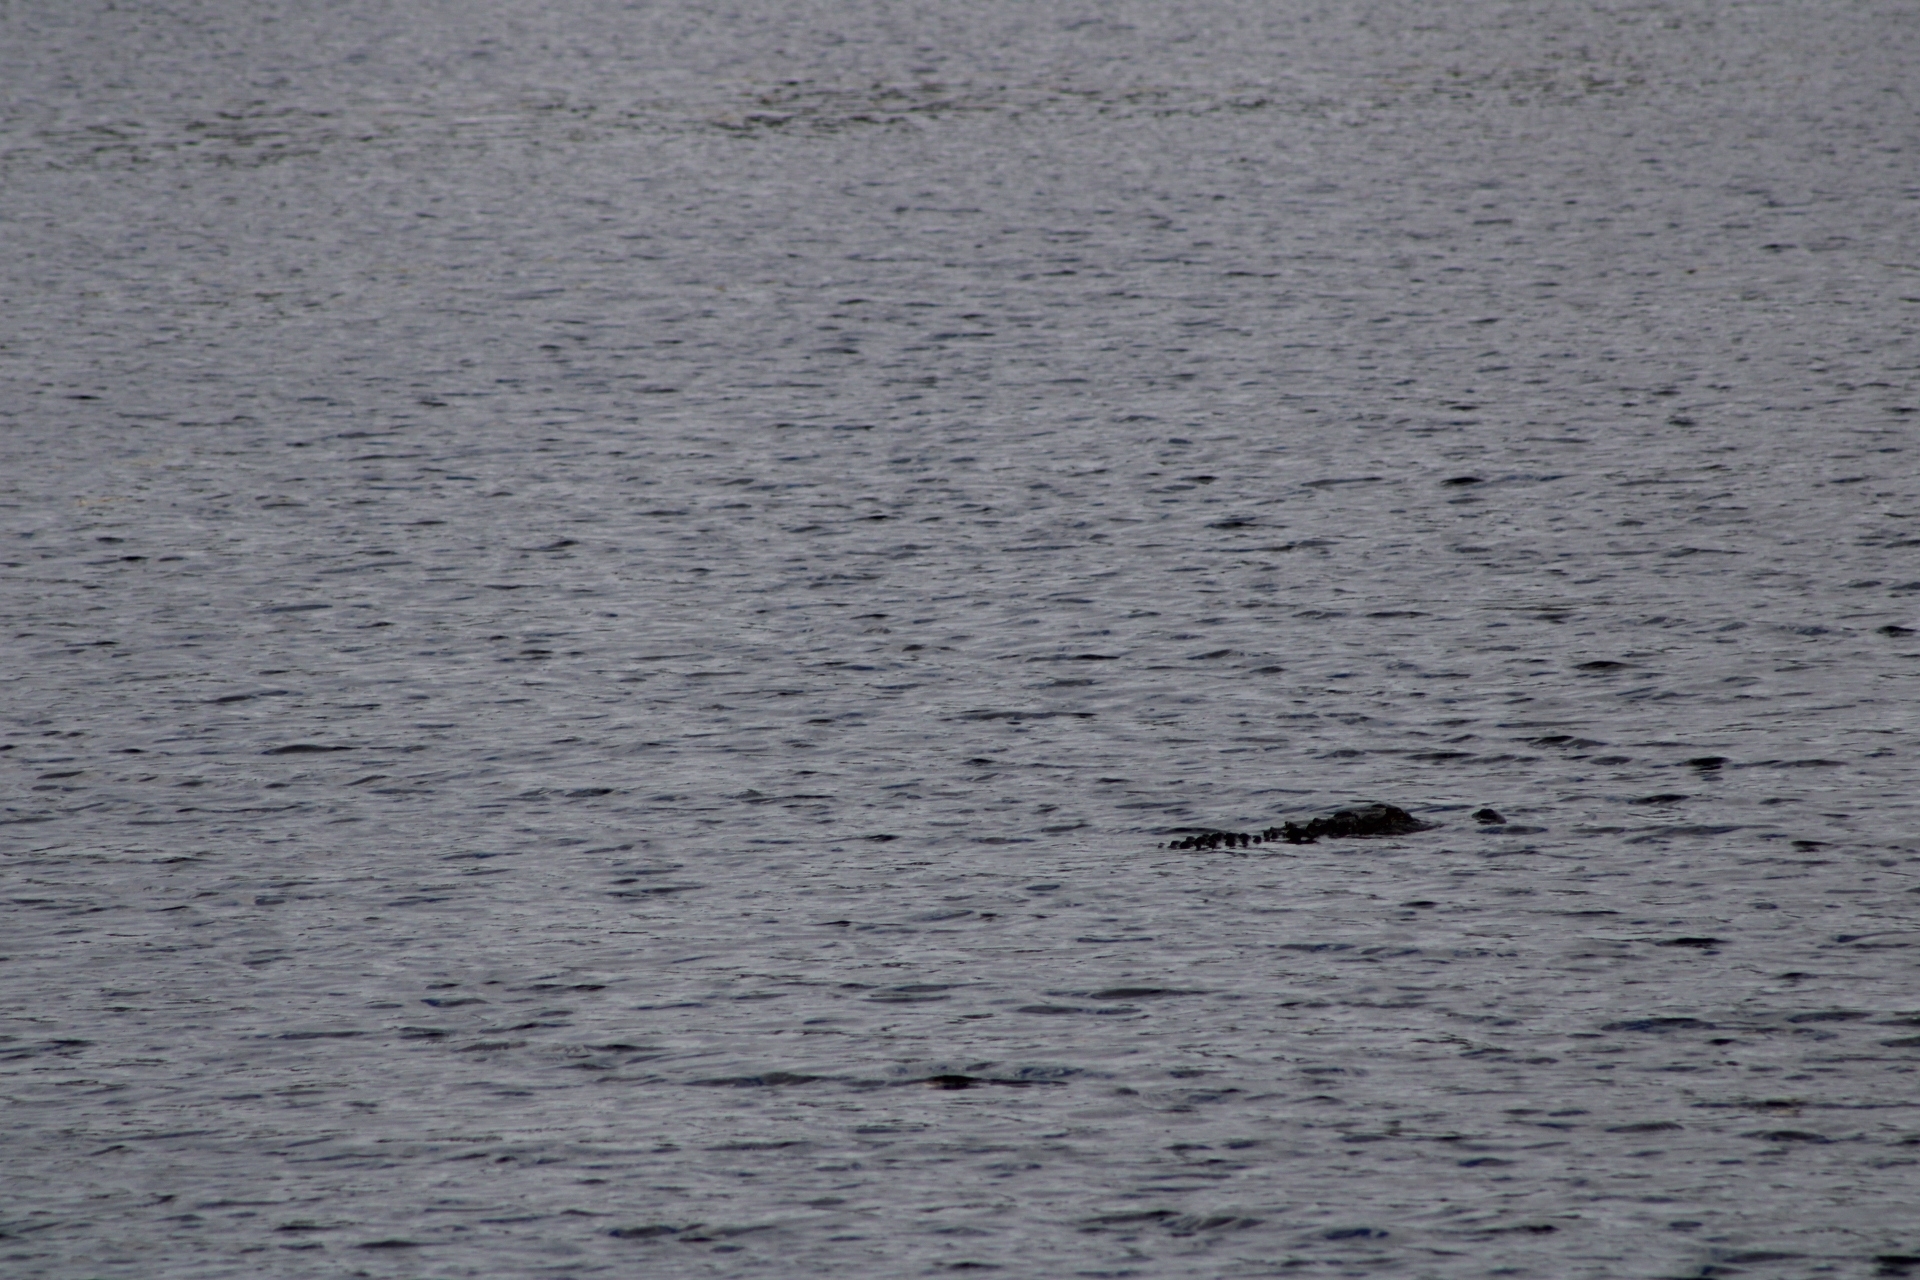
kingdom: Animalia
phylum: Chordata
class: Crocodylia
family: Alligatoridae
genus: Alligator
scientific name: Alligator mississippiensis
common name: American alligator
